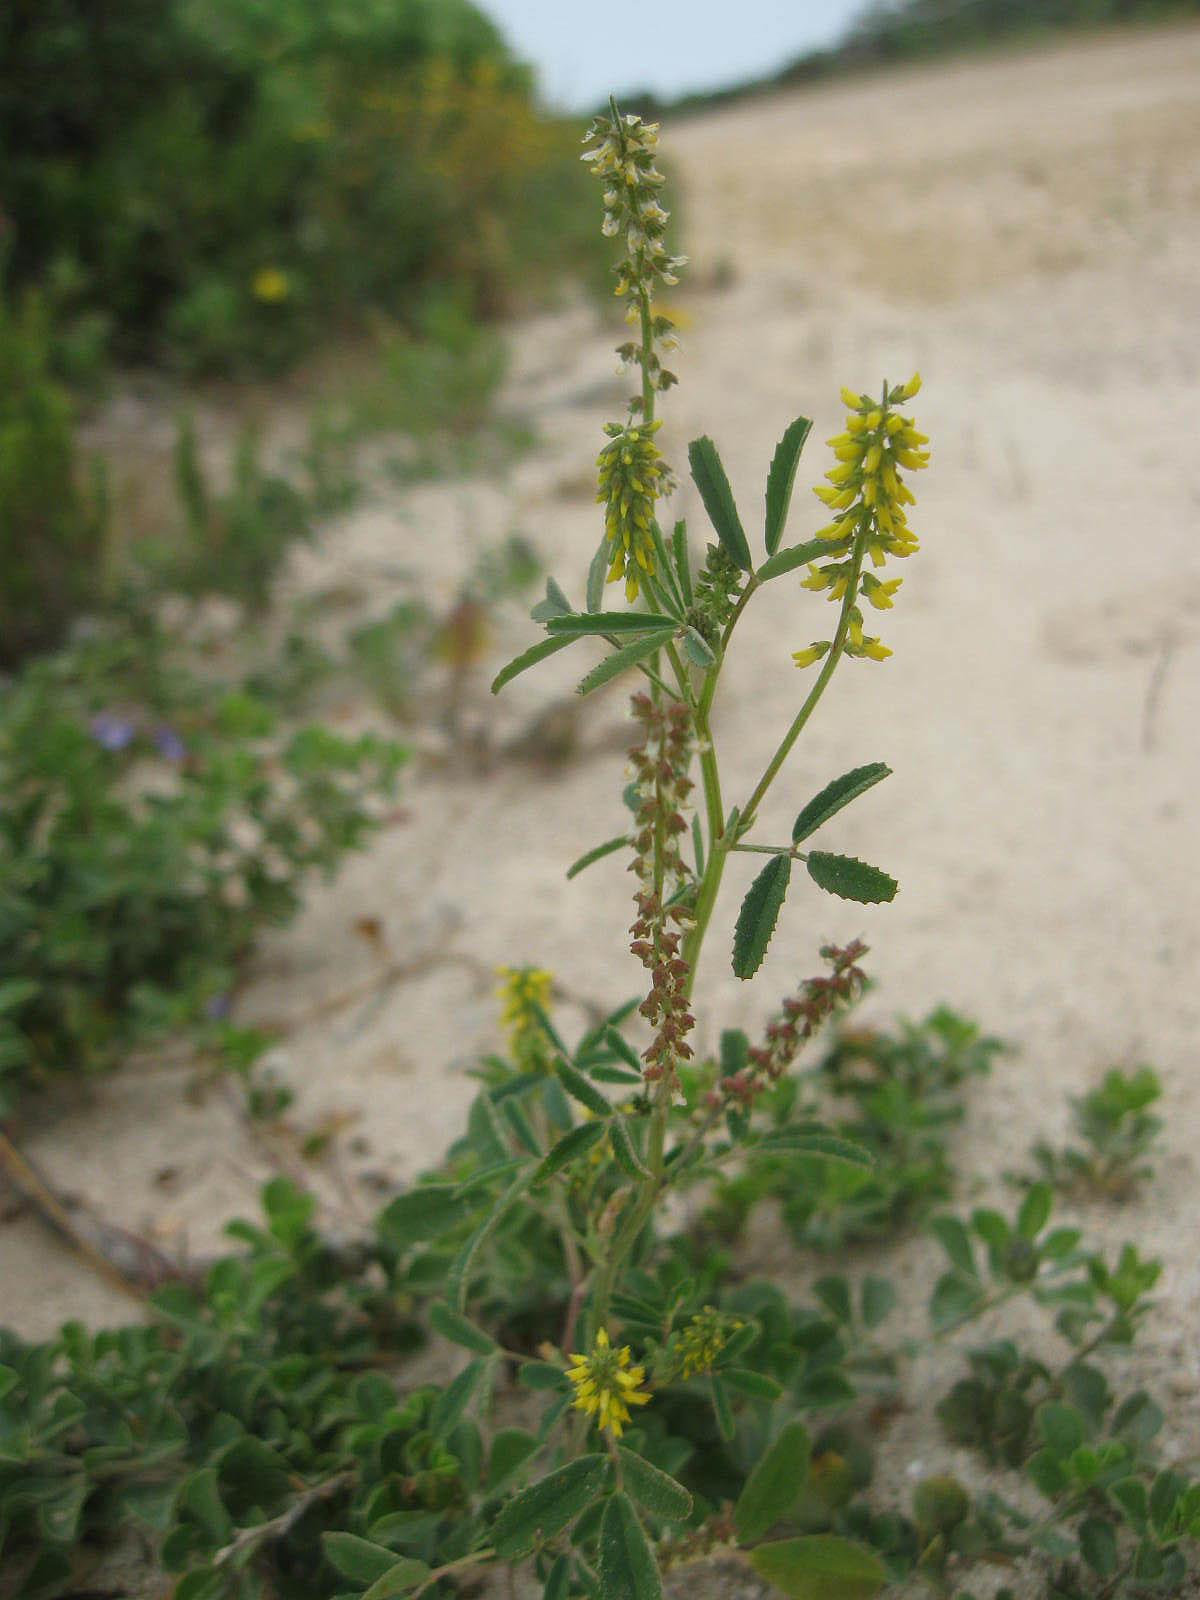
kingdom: Plantae
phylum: Tracheophyta
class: Magnoliopsida
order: Fabales
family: Fabaceae
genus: Melilotus
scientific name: Melilotus indicus
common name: Small melilot
